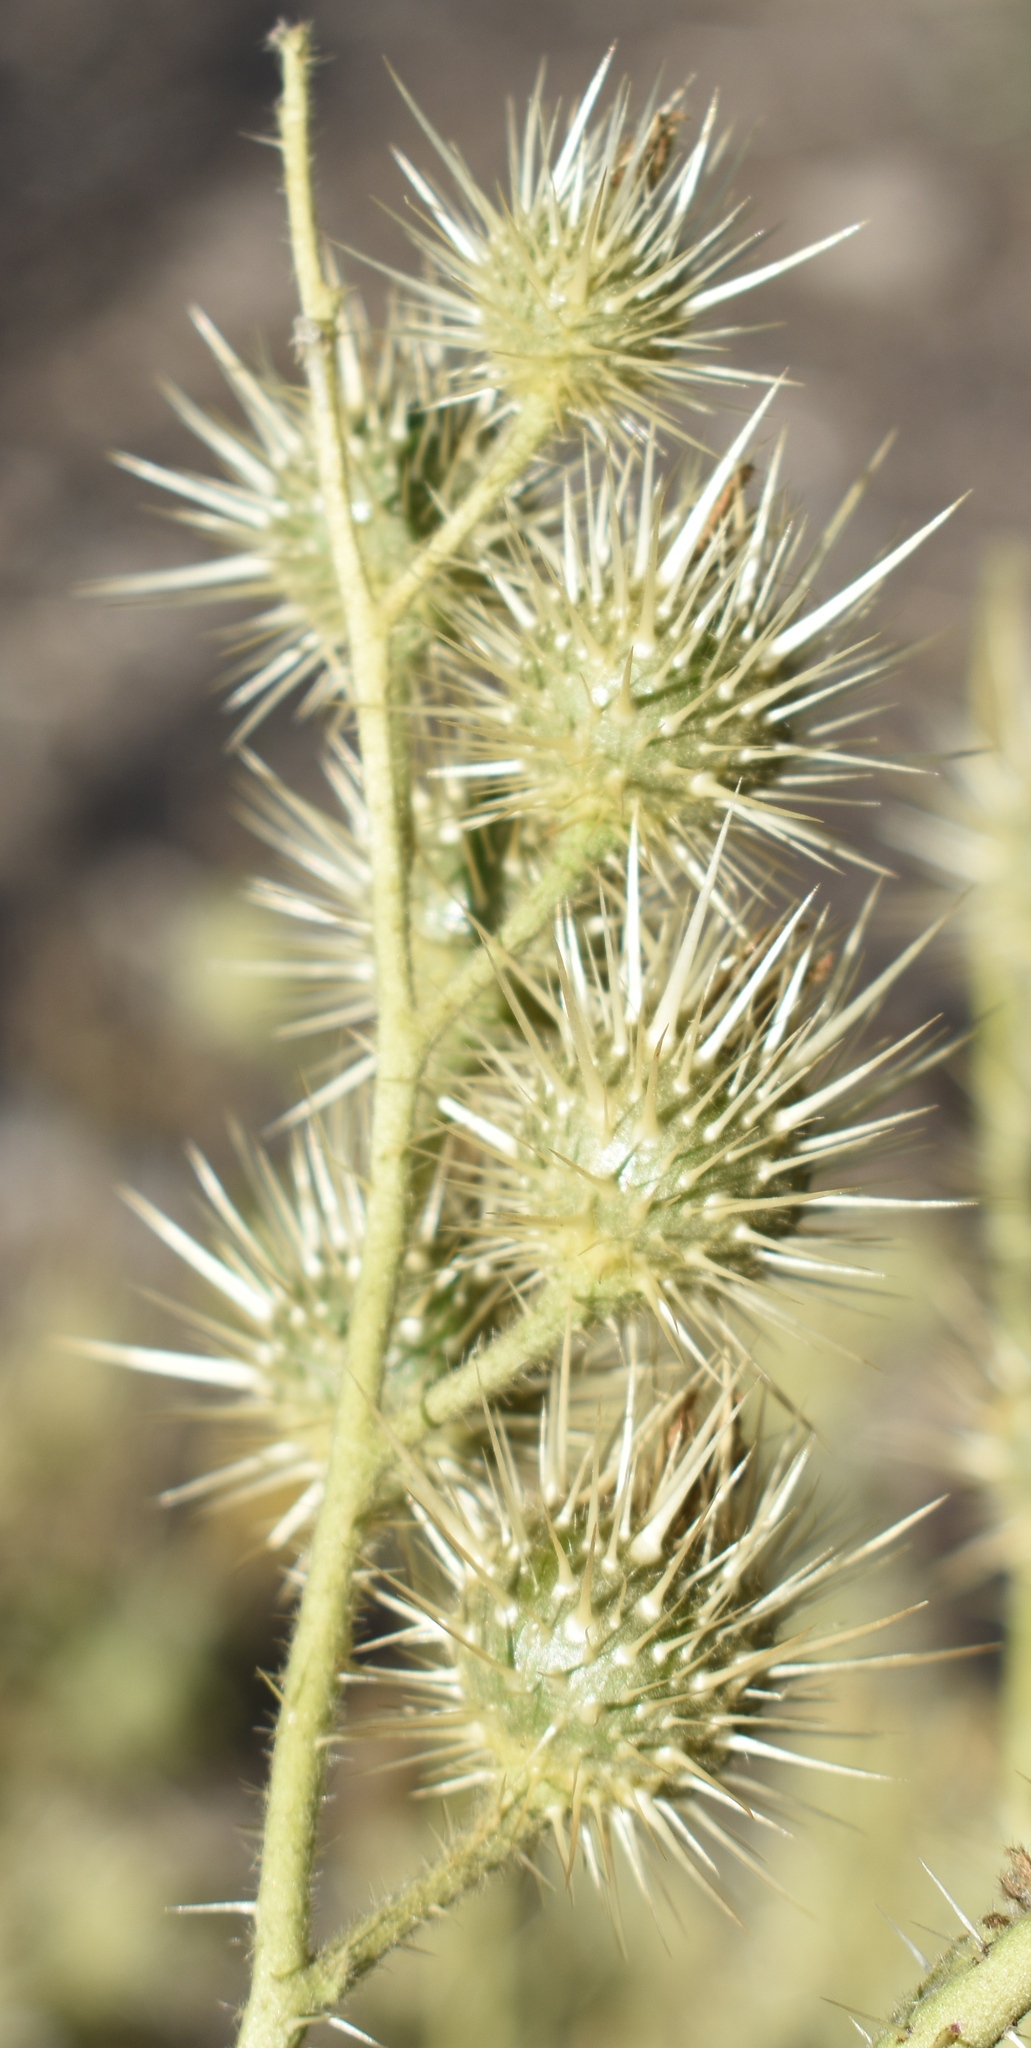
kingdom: Plantae
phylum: Tracheophyta
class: Magnoliopsida
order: Solanales
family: Solanaceae
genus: Solanum
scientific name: Solanum angustifolium
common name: Buffalobur nightshade
